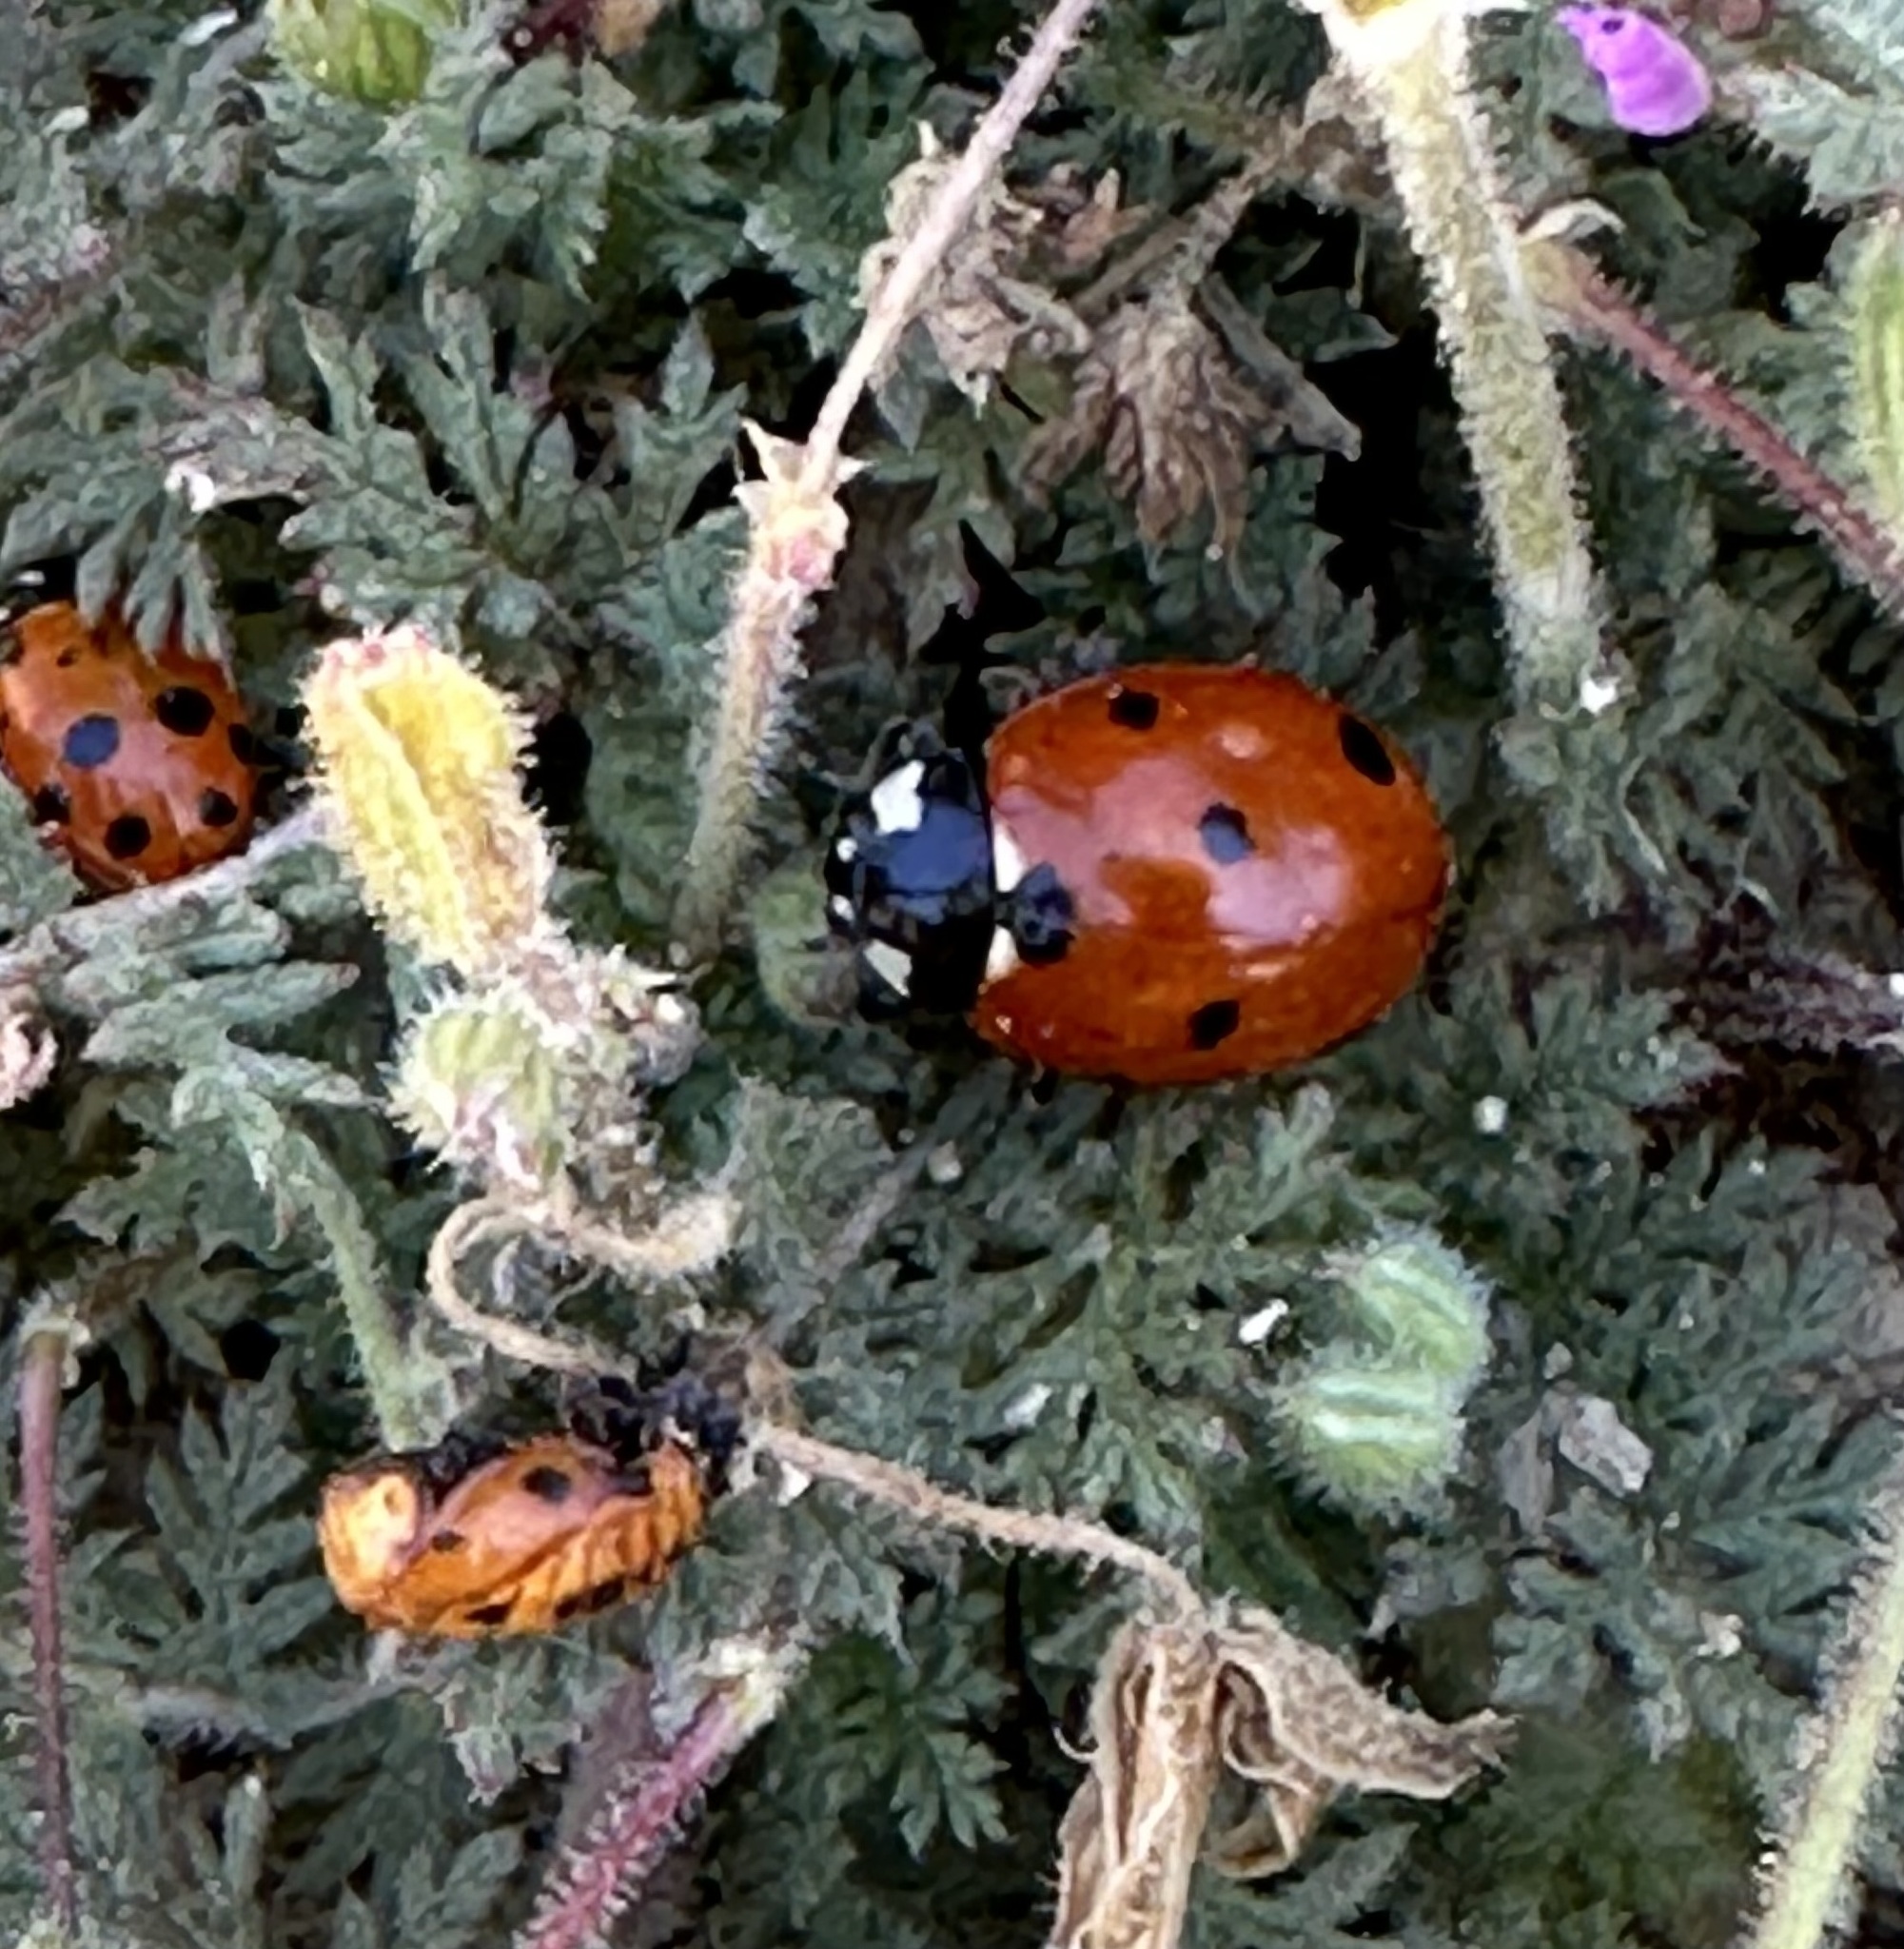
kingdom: Animalia
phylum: Arthropoda
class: Insecta
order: Coleoptera
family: Coccinellidae
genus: Coccinella
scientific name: Coccinella septempunctata
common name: Sevenspotted lady beetle
